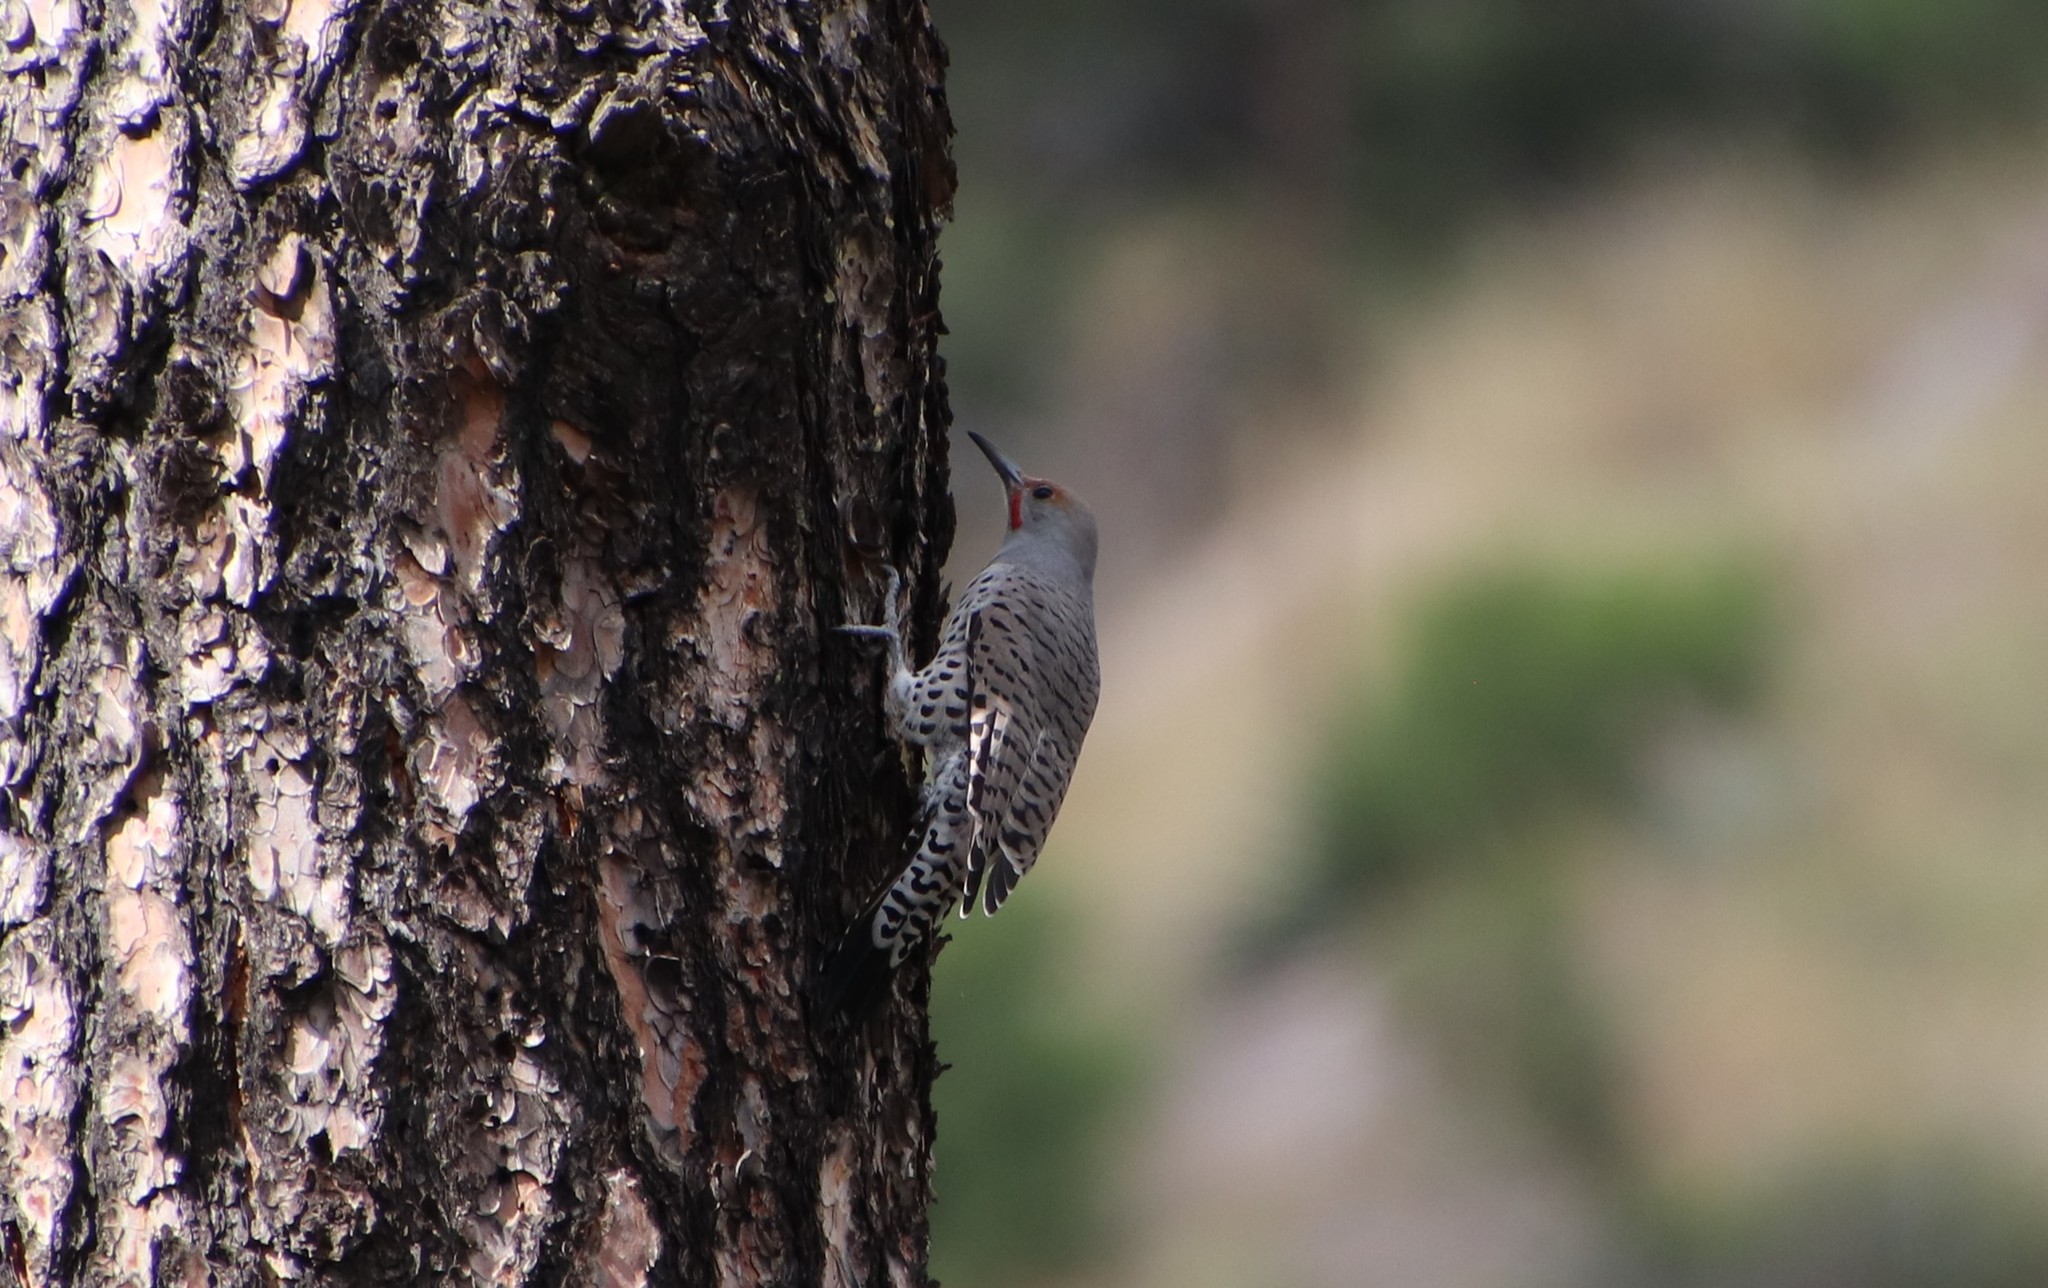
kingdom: Animalia
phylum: Chordata
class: Aves
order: Piciformes
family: Picidae
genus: Colaptes
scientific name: Colaptes auratus
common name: Northern flicker
